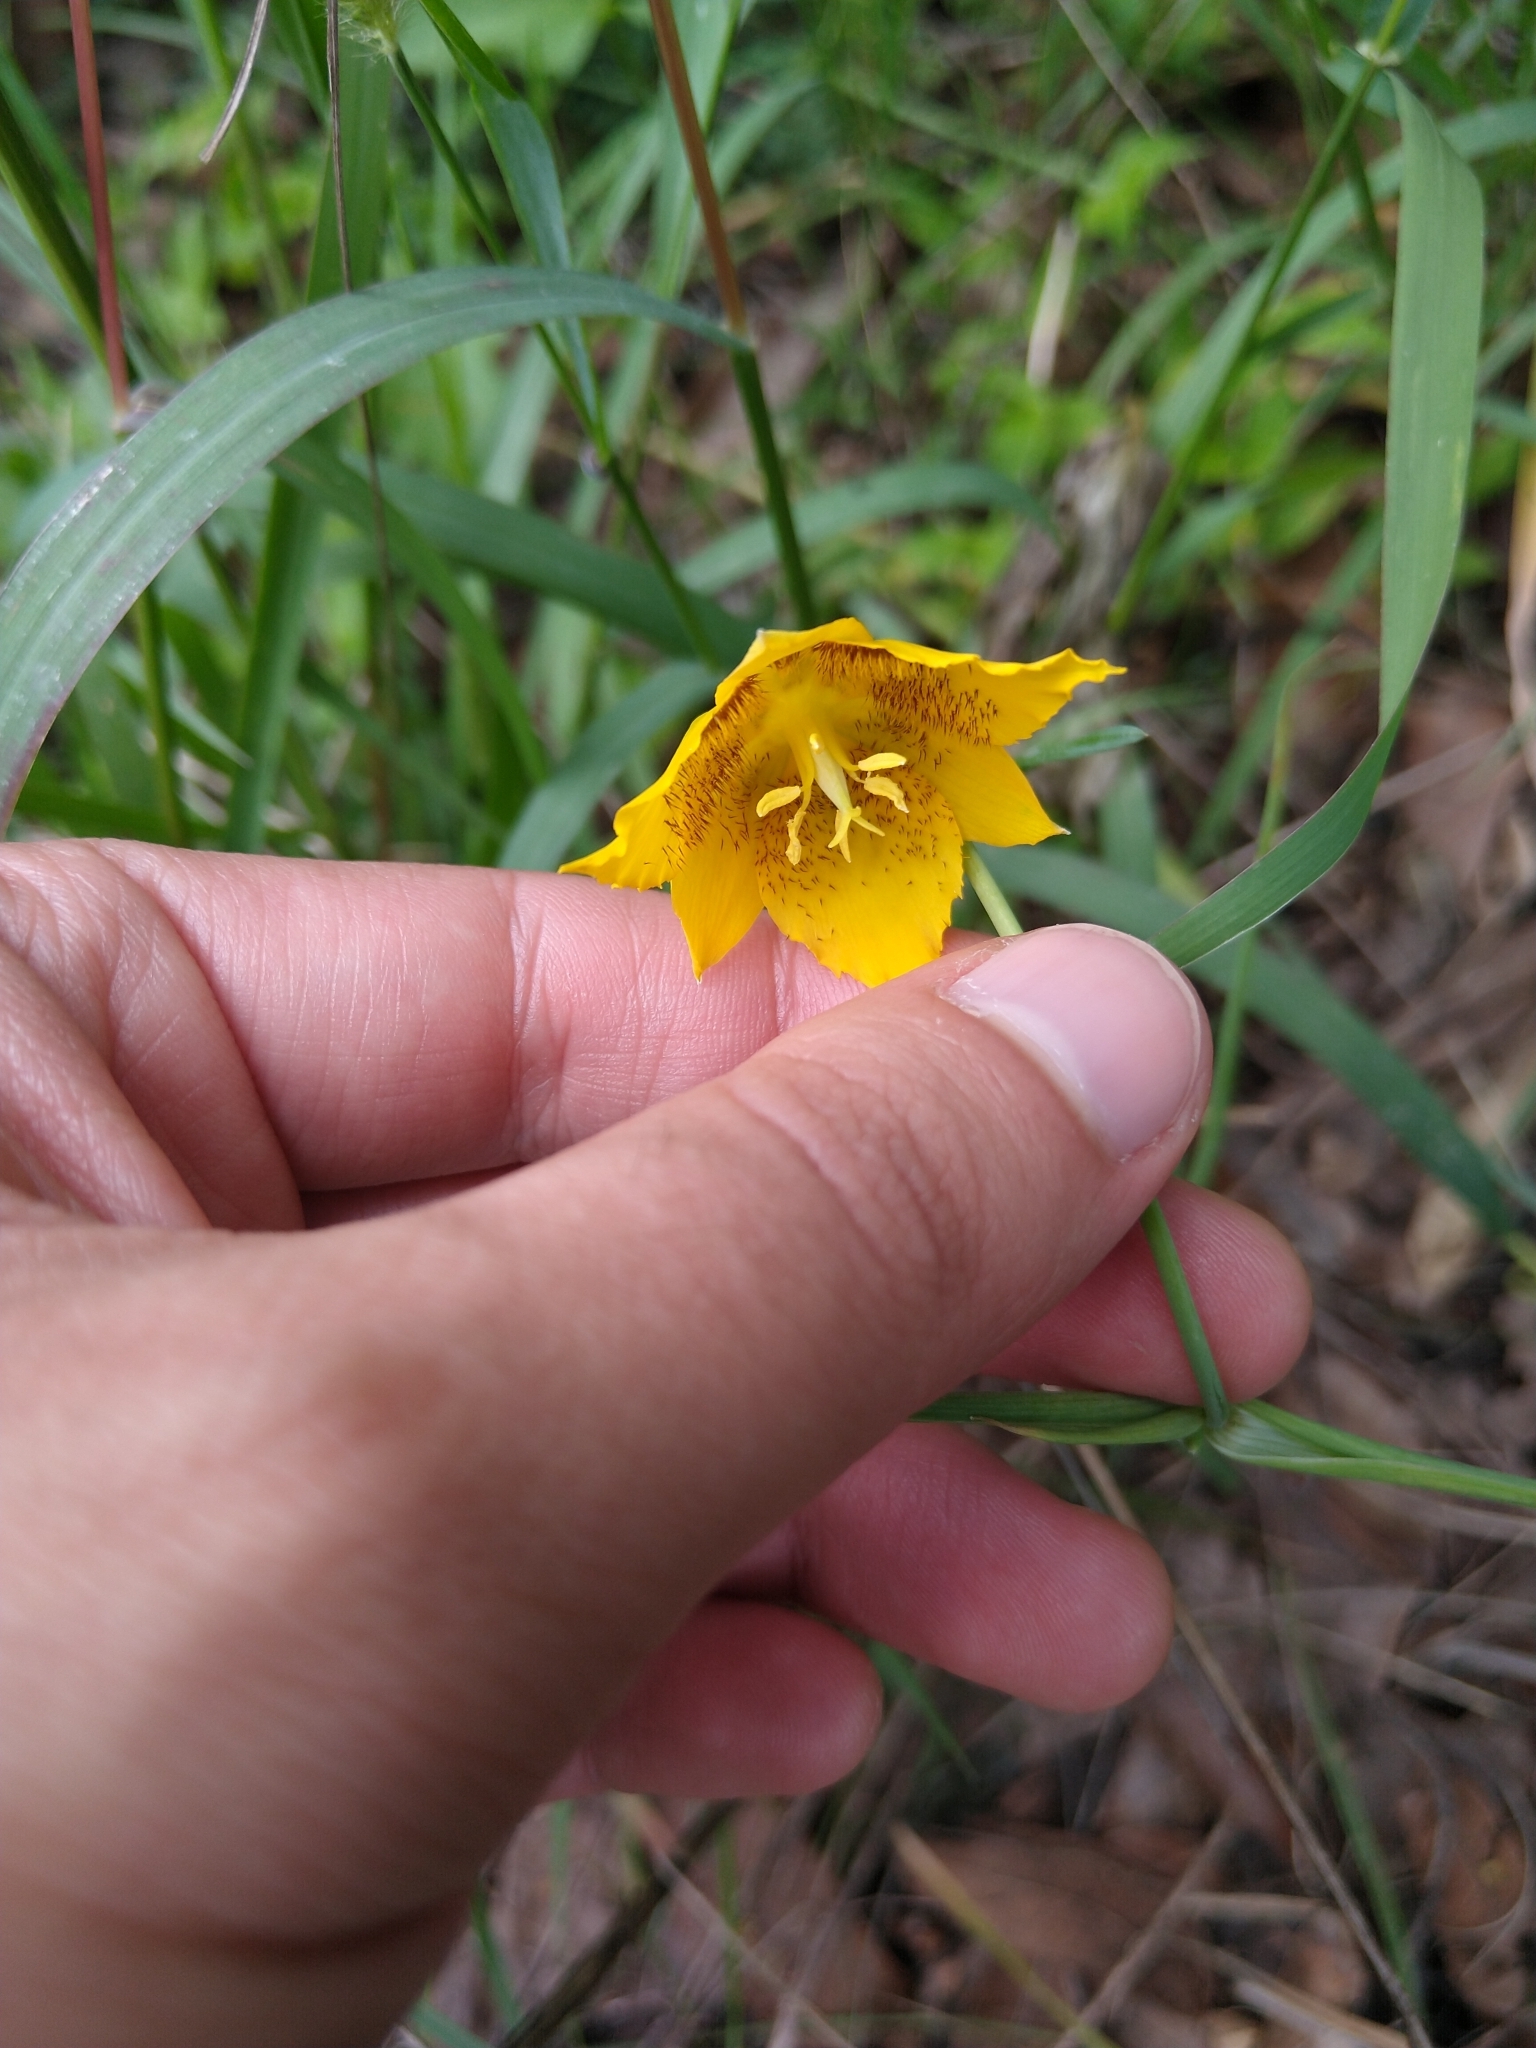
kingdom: Plantae
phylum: Tracheophyta
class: Liliopsida
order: Liliales
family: Liliaceae
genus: Calochortus
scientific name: Calochortus barbatus
